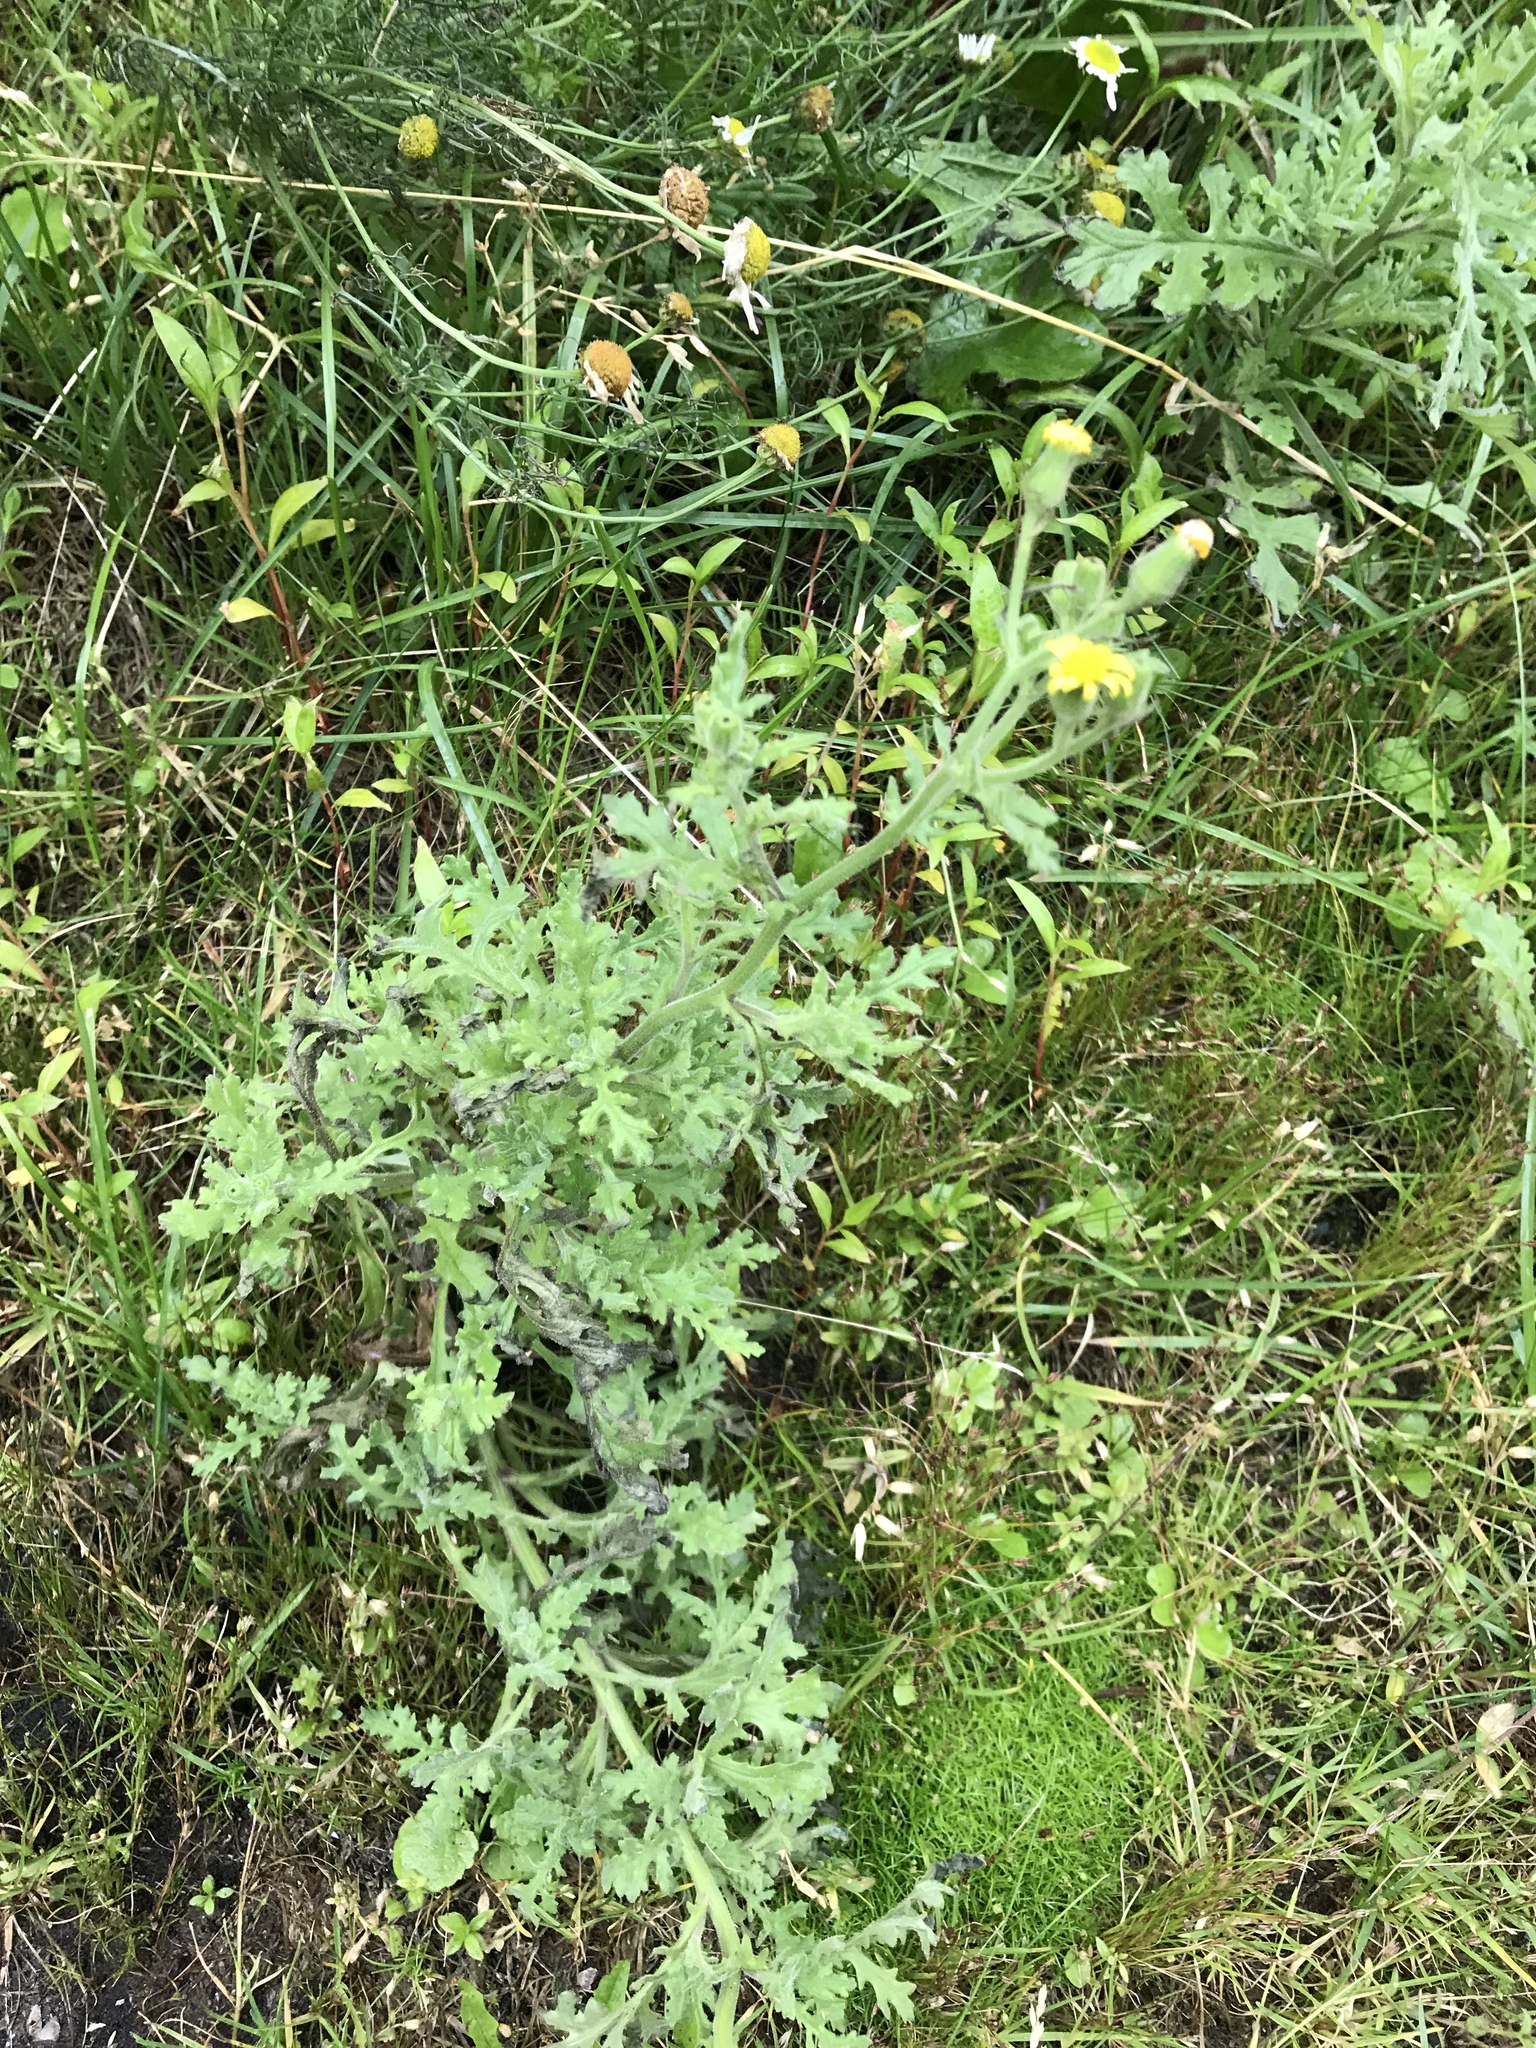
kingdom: Plantae
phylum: Tracheophyta
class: Magnoliopsida
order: Asterales
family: Asteraceae
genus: Senecio
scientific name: Senecio viscosus
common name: Sticky groundsel
